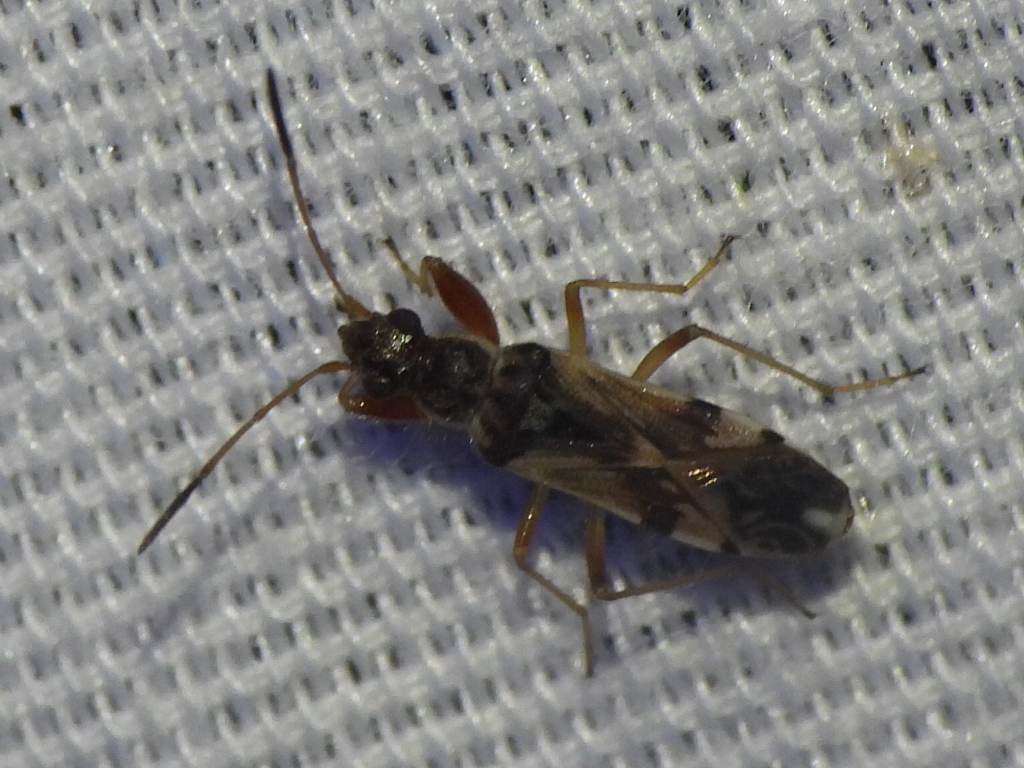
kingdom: Animalia
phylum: Arthropoda
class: Insecta
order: Hemiptera
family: Rhyparochromidae
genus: Neopamera
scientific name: Neopamera bilobata
